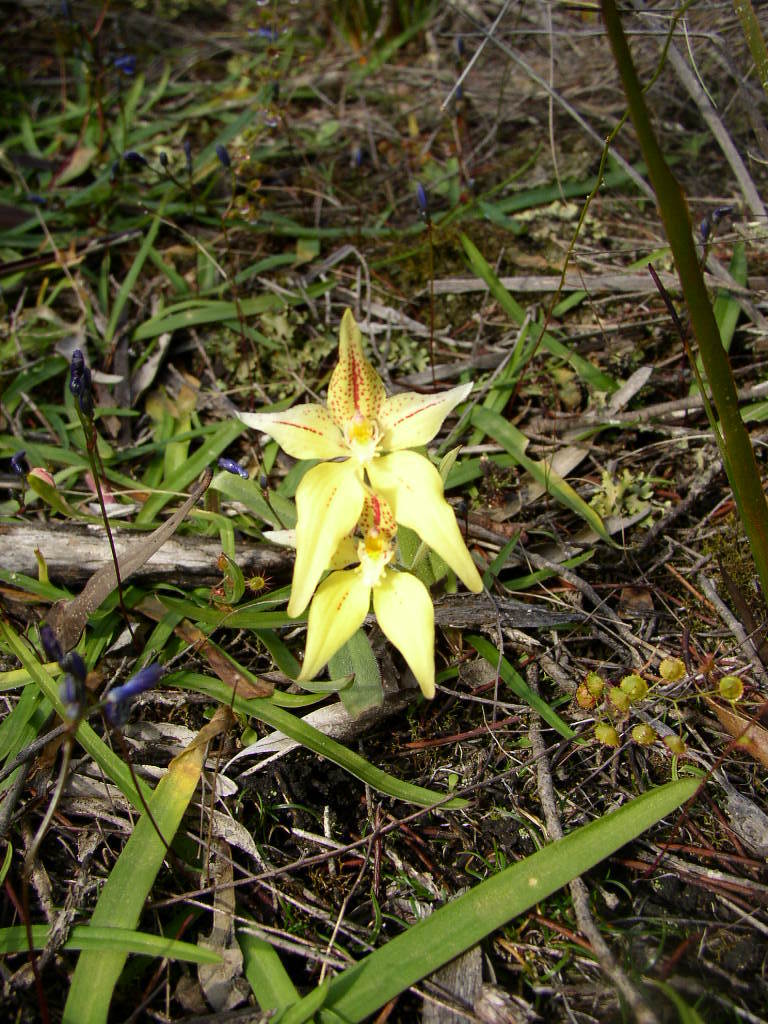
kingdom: Plantae
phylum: Tracheophyta
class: Liliopsida
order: Asparagales
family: Orchidaceae
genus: Caladenia
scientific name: Caladenia flava
